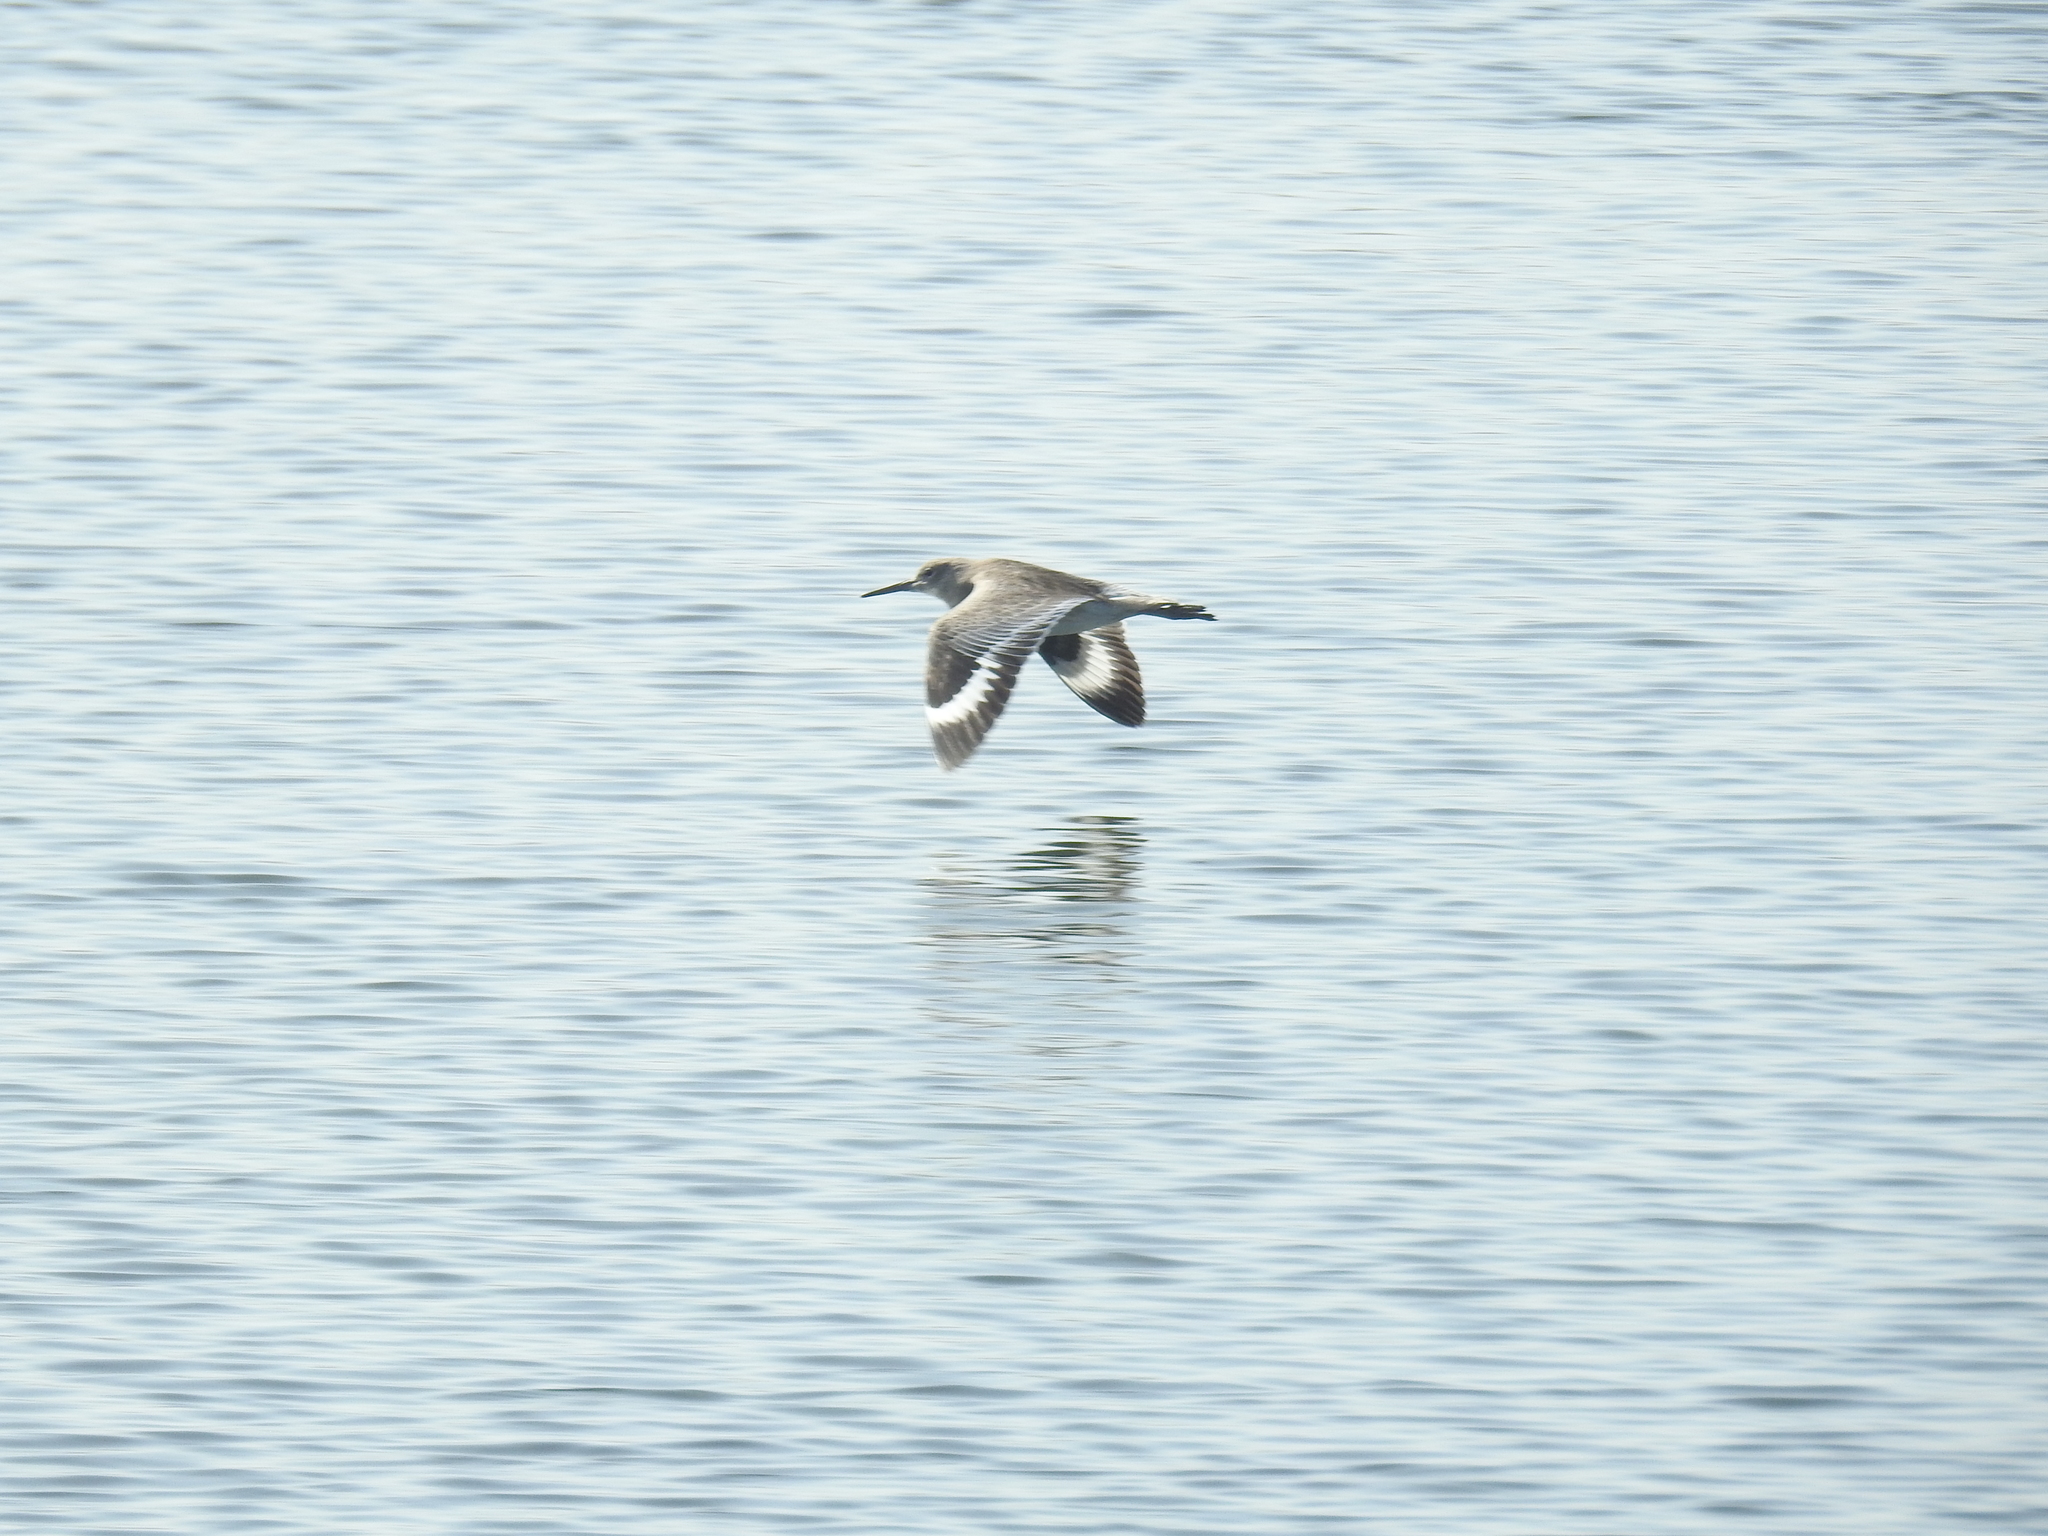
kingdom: Animalia
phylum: Chordata
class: Aves
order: Charadriiformes
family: Scolopacidae
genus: Tringa
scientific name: Tringa semipalmata
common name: Willet
